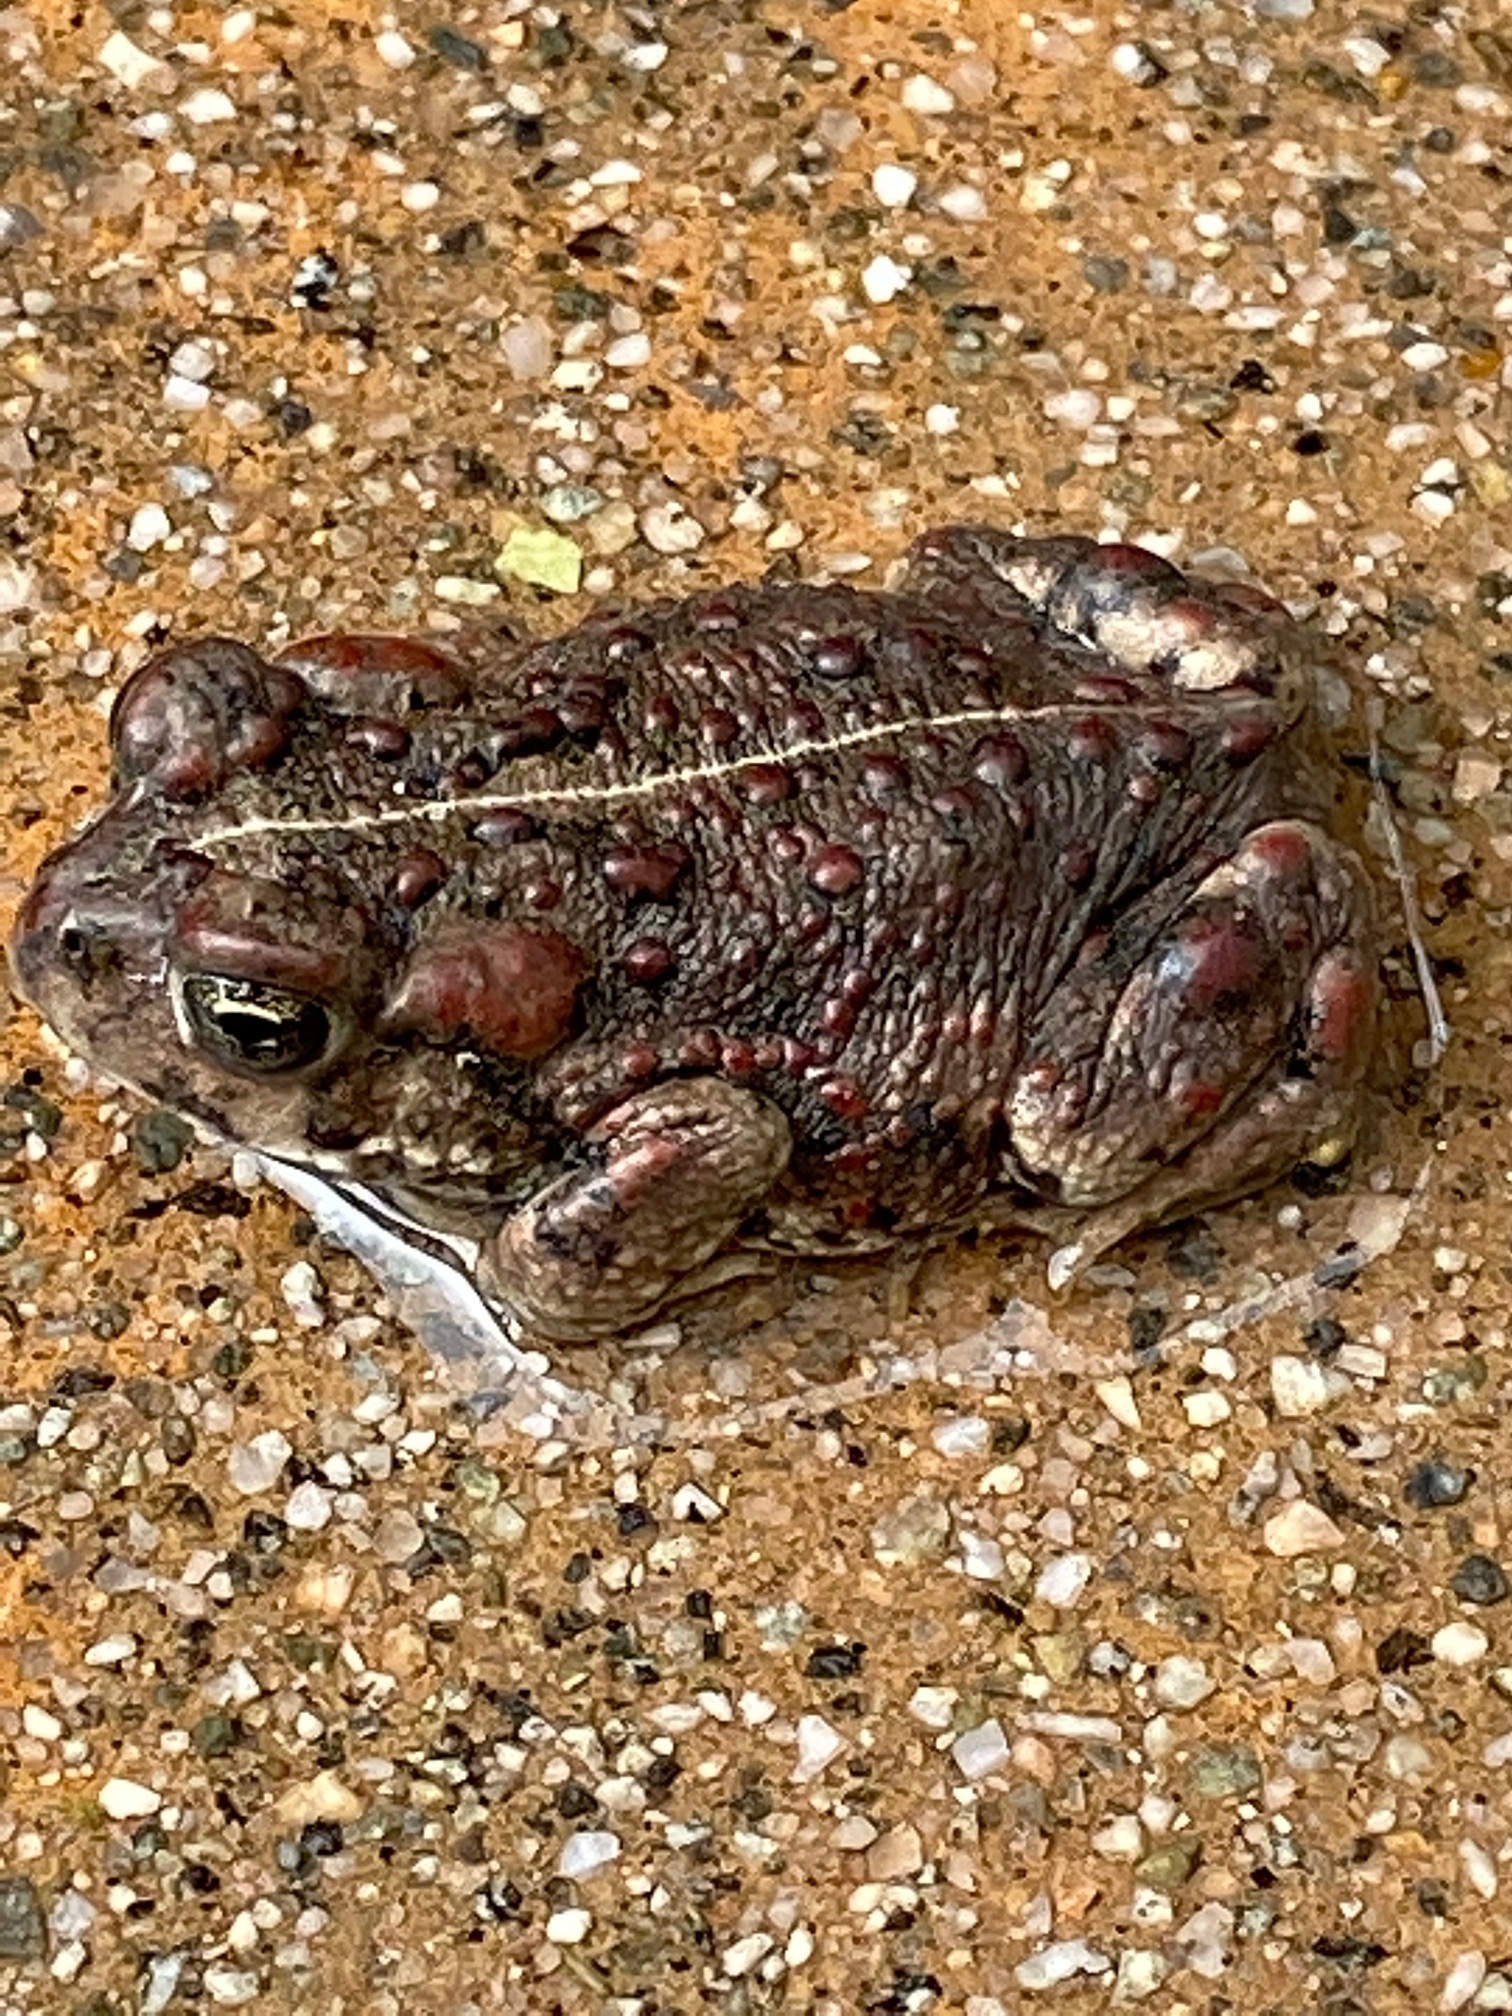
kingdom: Animalia
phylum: Chordata
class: Amphibia
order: Anura
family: Bufonidae
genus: Anaxyrus
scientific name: Anaxyrus boreas
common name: Western toad
